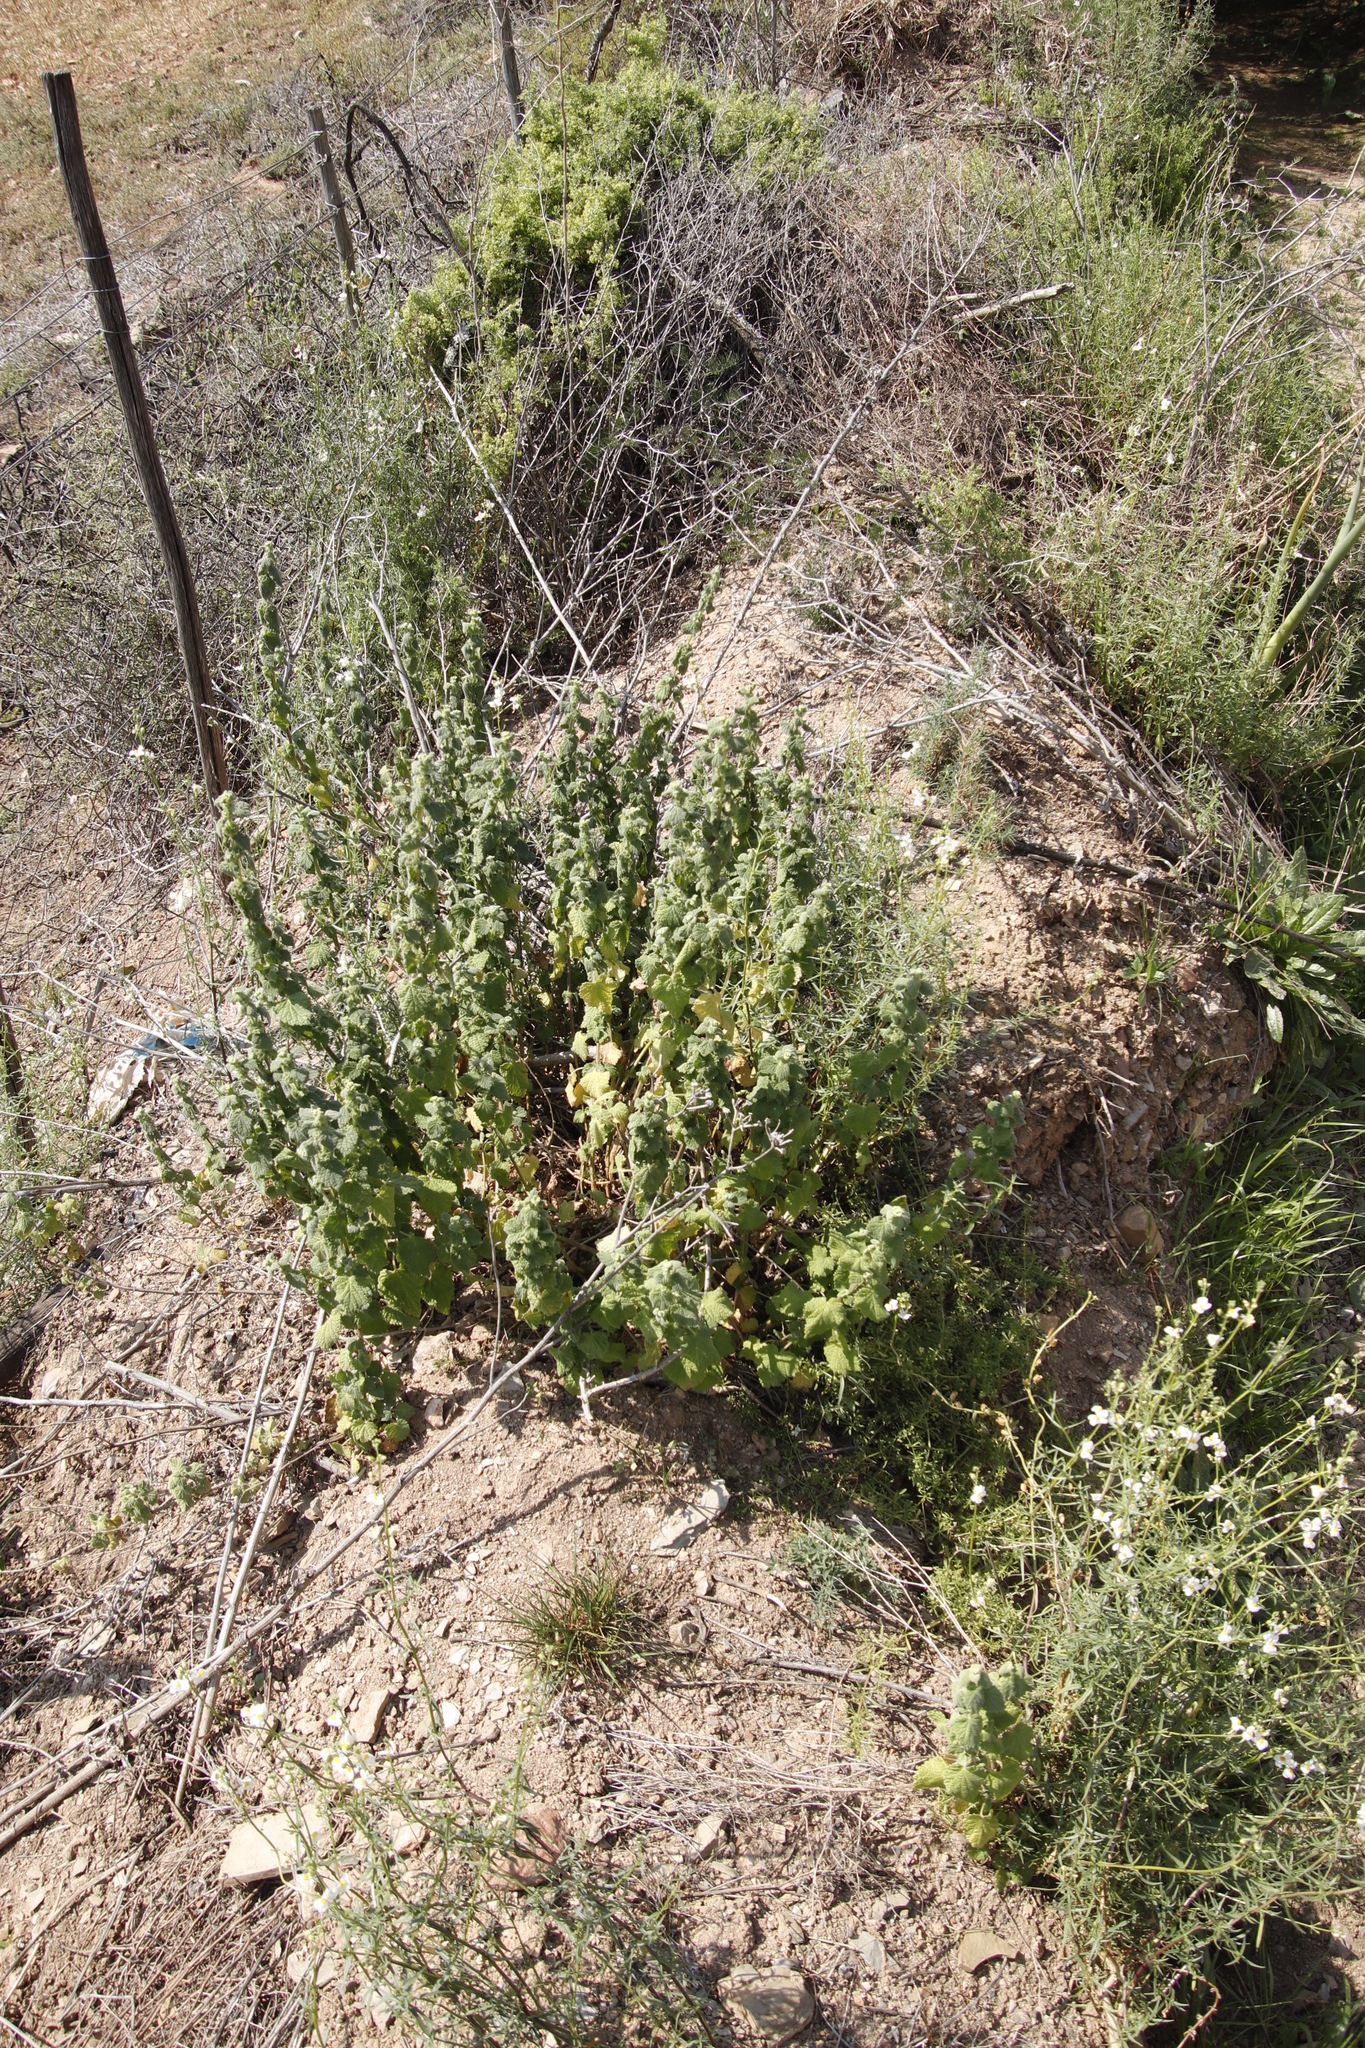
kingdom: Plantae
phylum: Tracheophyta
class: Magnoliopsida
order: Lamiales
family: Lamiaceae
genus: Pseudodictamnus
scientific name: Pseudodictamnus africanus
